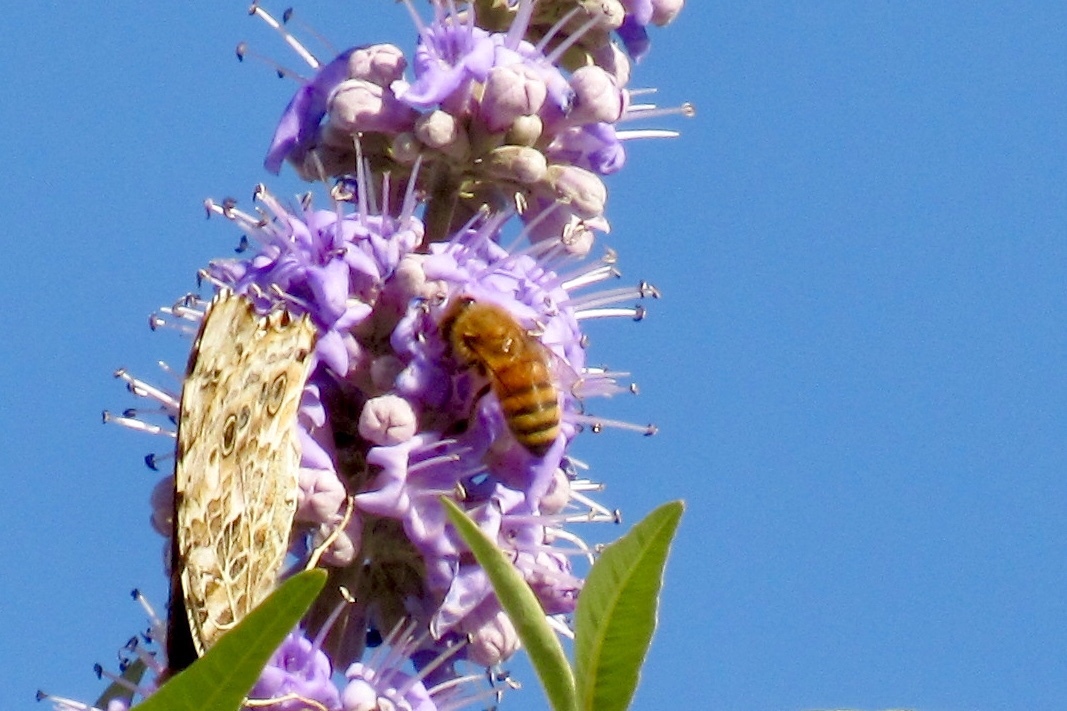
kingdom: Animalia
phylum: Arthropoda
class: Insecta
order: Hymenoptera
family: Apidae
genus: Apis
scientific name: Apis mellifera
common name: Honey bee
